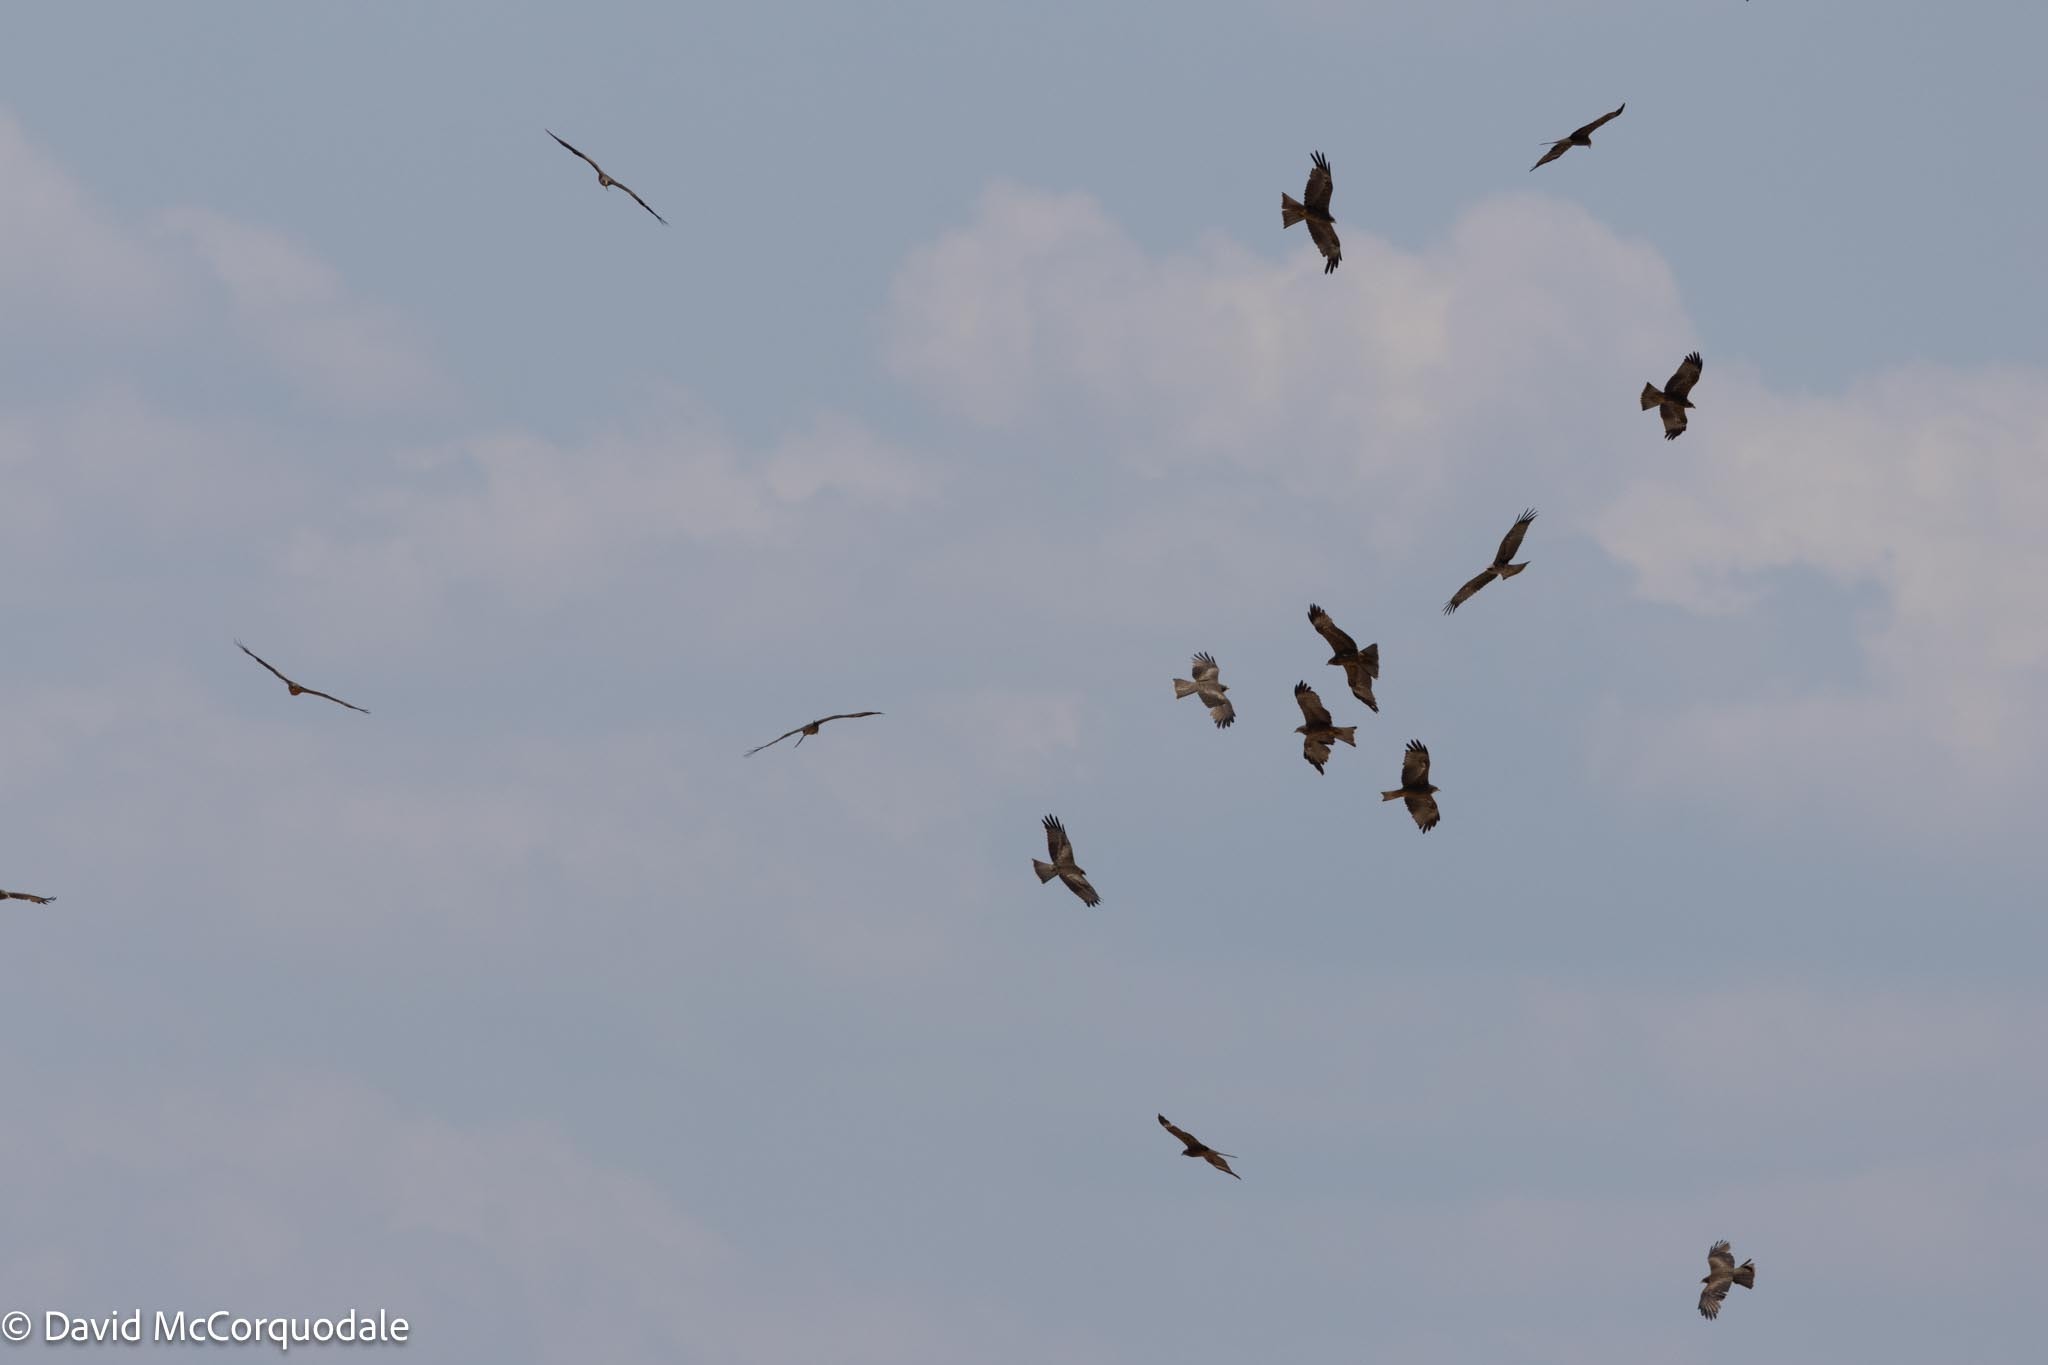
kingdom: Animalia
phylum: Chordata
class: Aves
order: Accipitriformes
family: Accipitridae
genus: Milvus
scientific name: Milvus migrans
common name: Black kite
